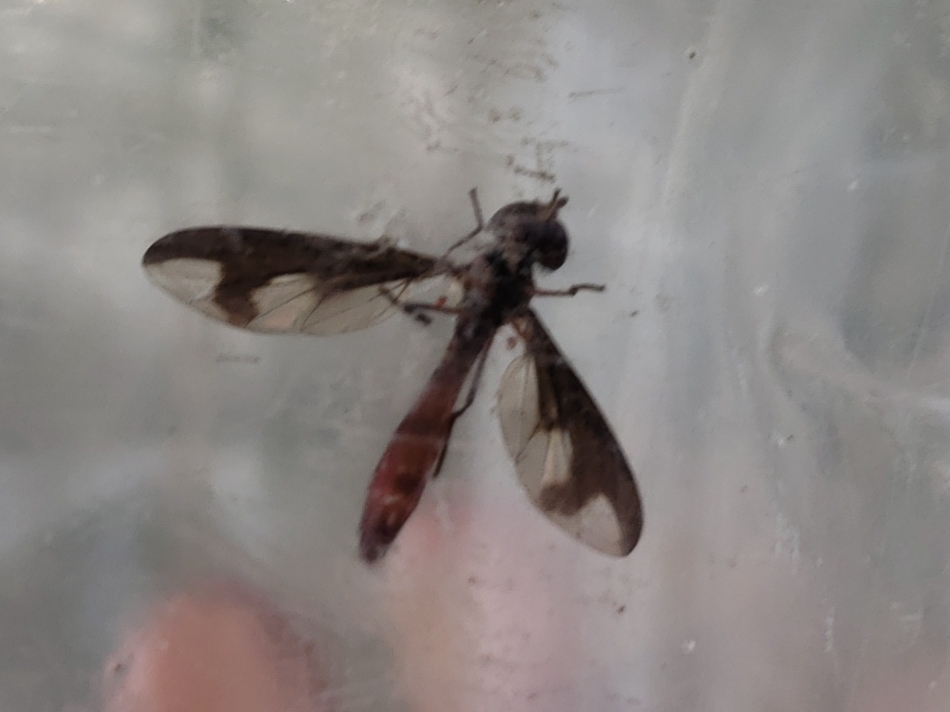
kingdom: Animalia
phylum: Arthropoda
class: Insecta
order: Diptera
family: Syrphidae
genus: Ocyptamus
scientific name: Ocyptamus fuscipennis
